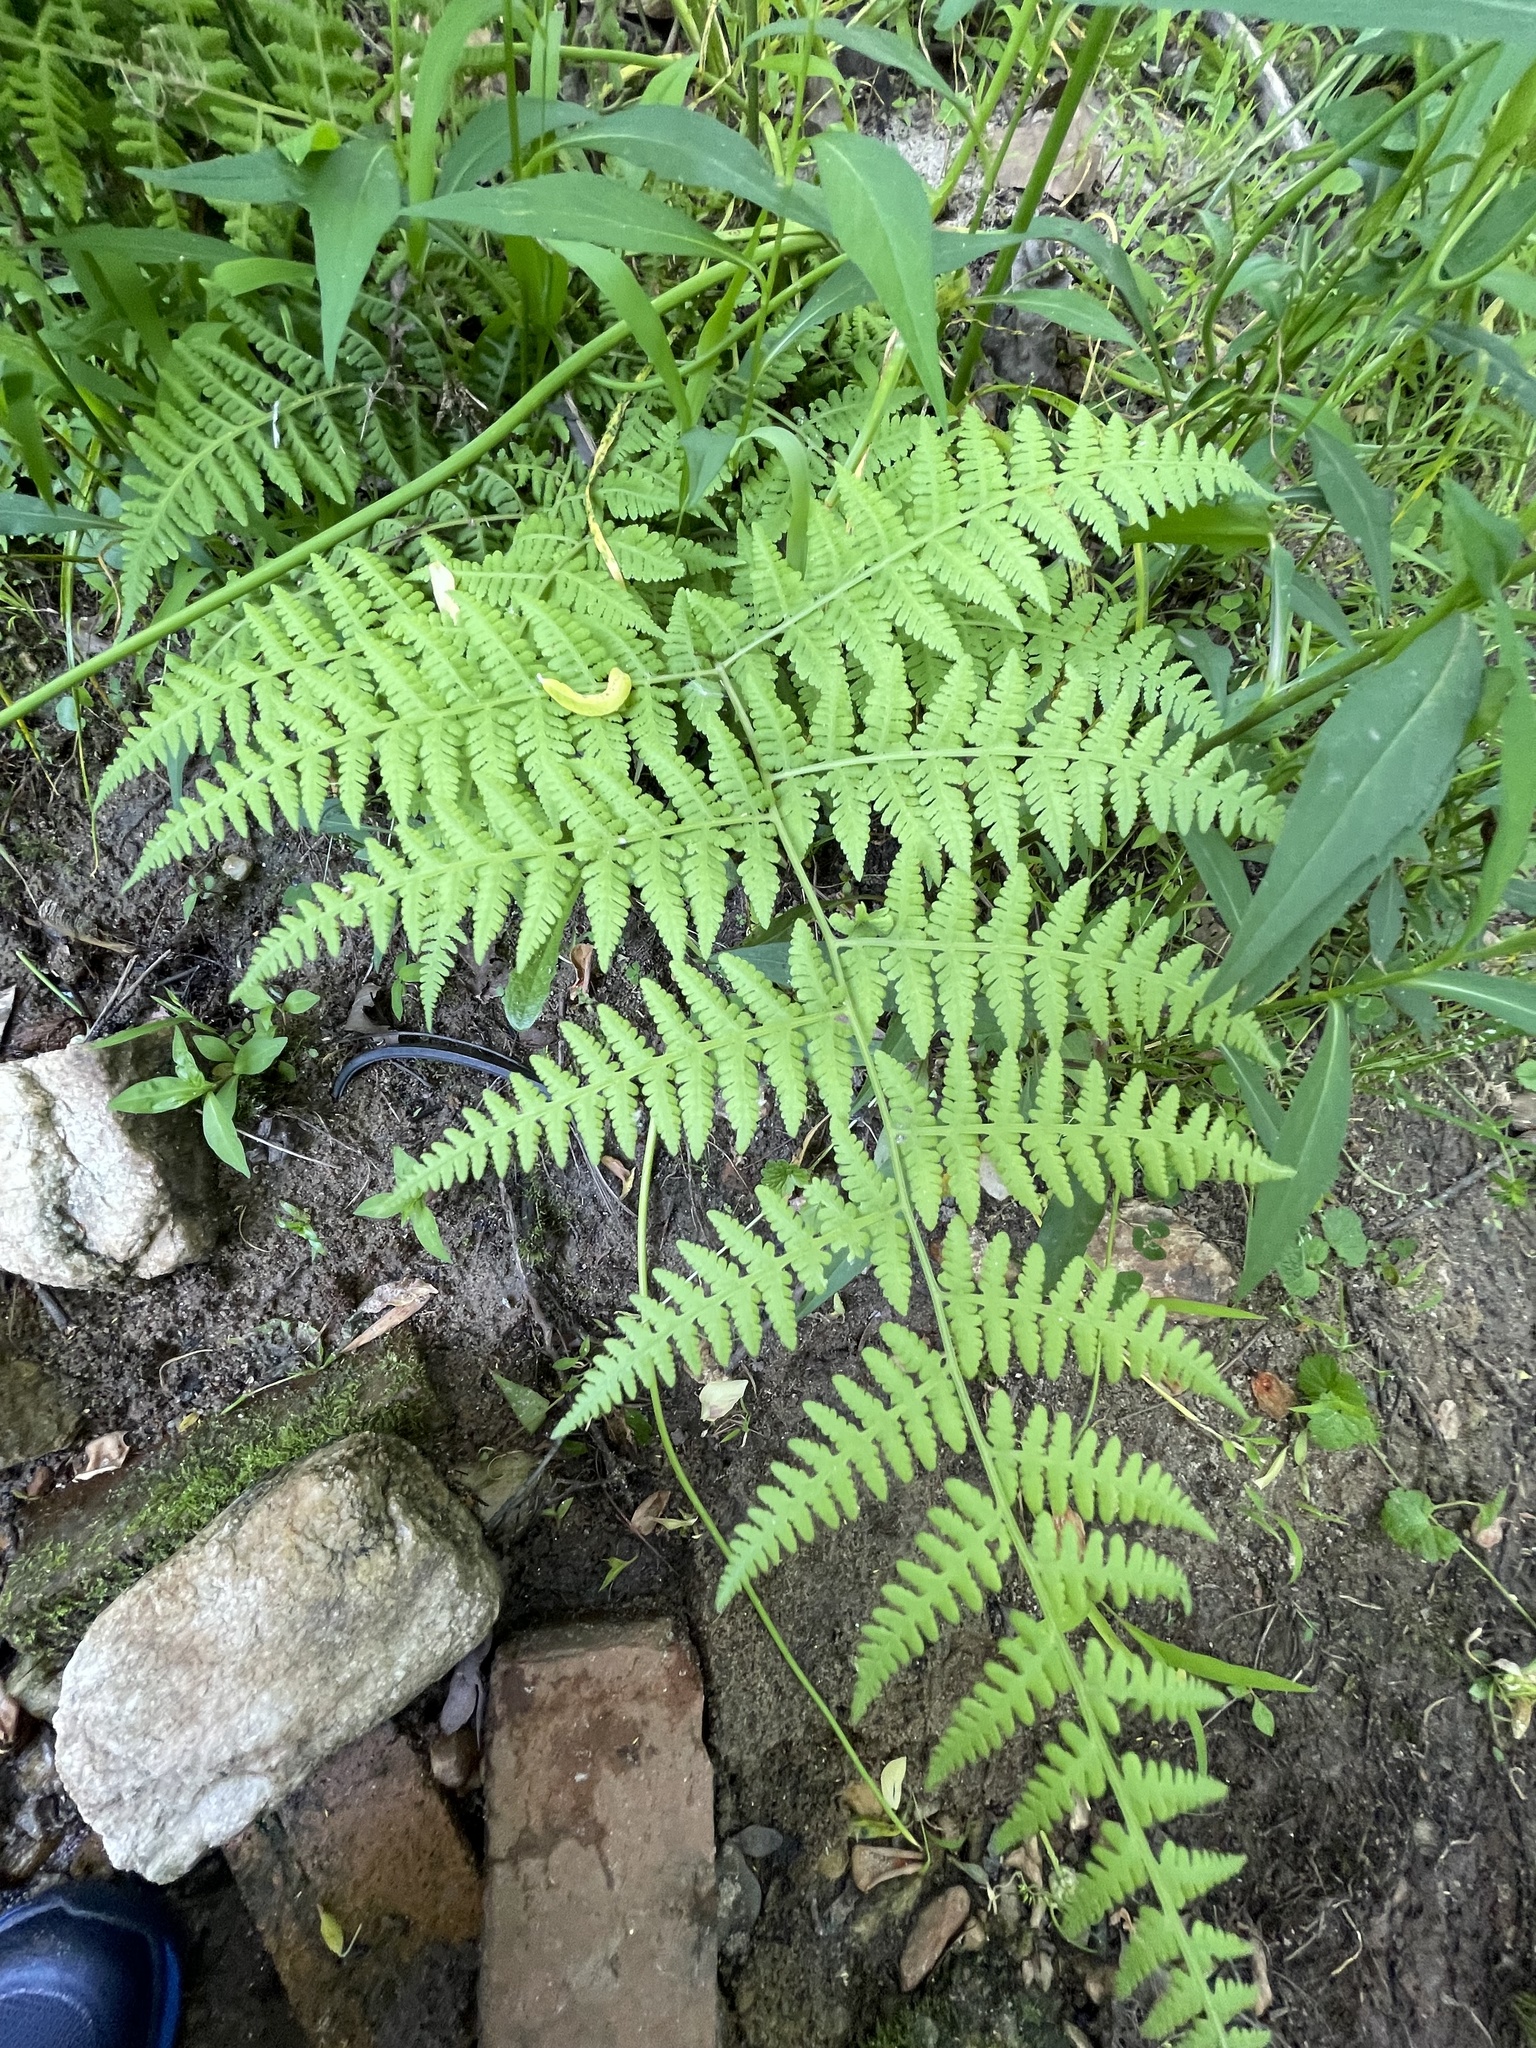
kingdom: Plantae
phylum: Tracheophyta
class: Polypodiopsida
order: Polypodiales
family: Thelypteridaceae
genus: Macrothelypteris
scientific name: Macrothelypteris torresiana
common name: Swordfern
